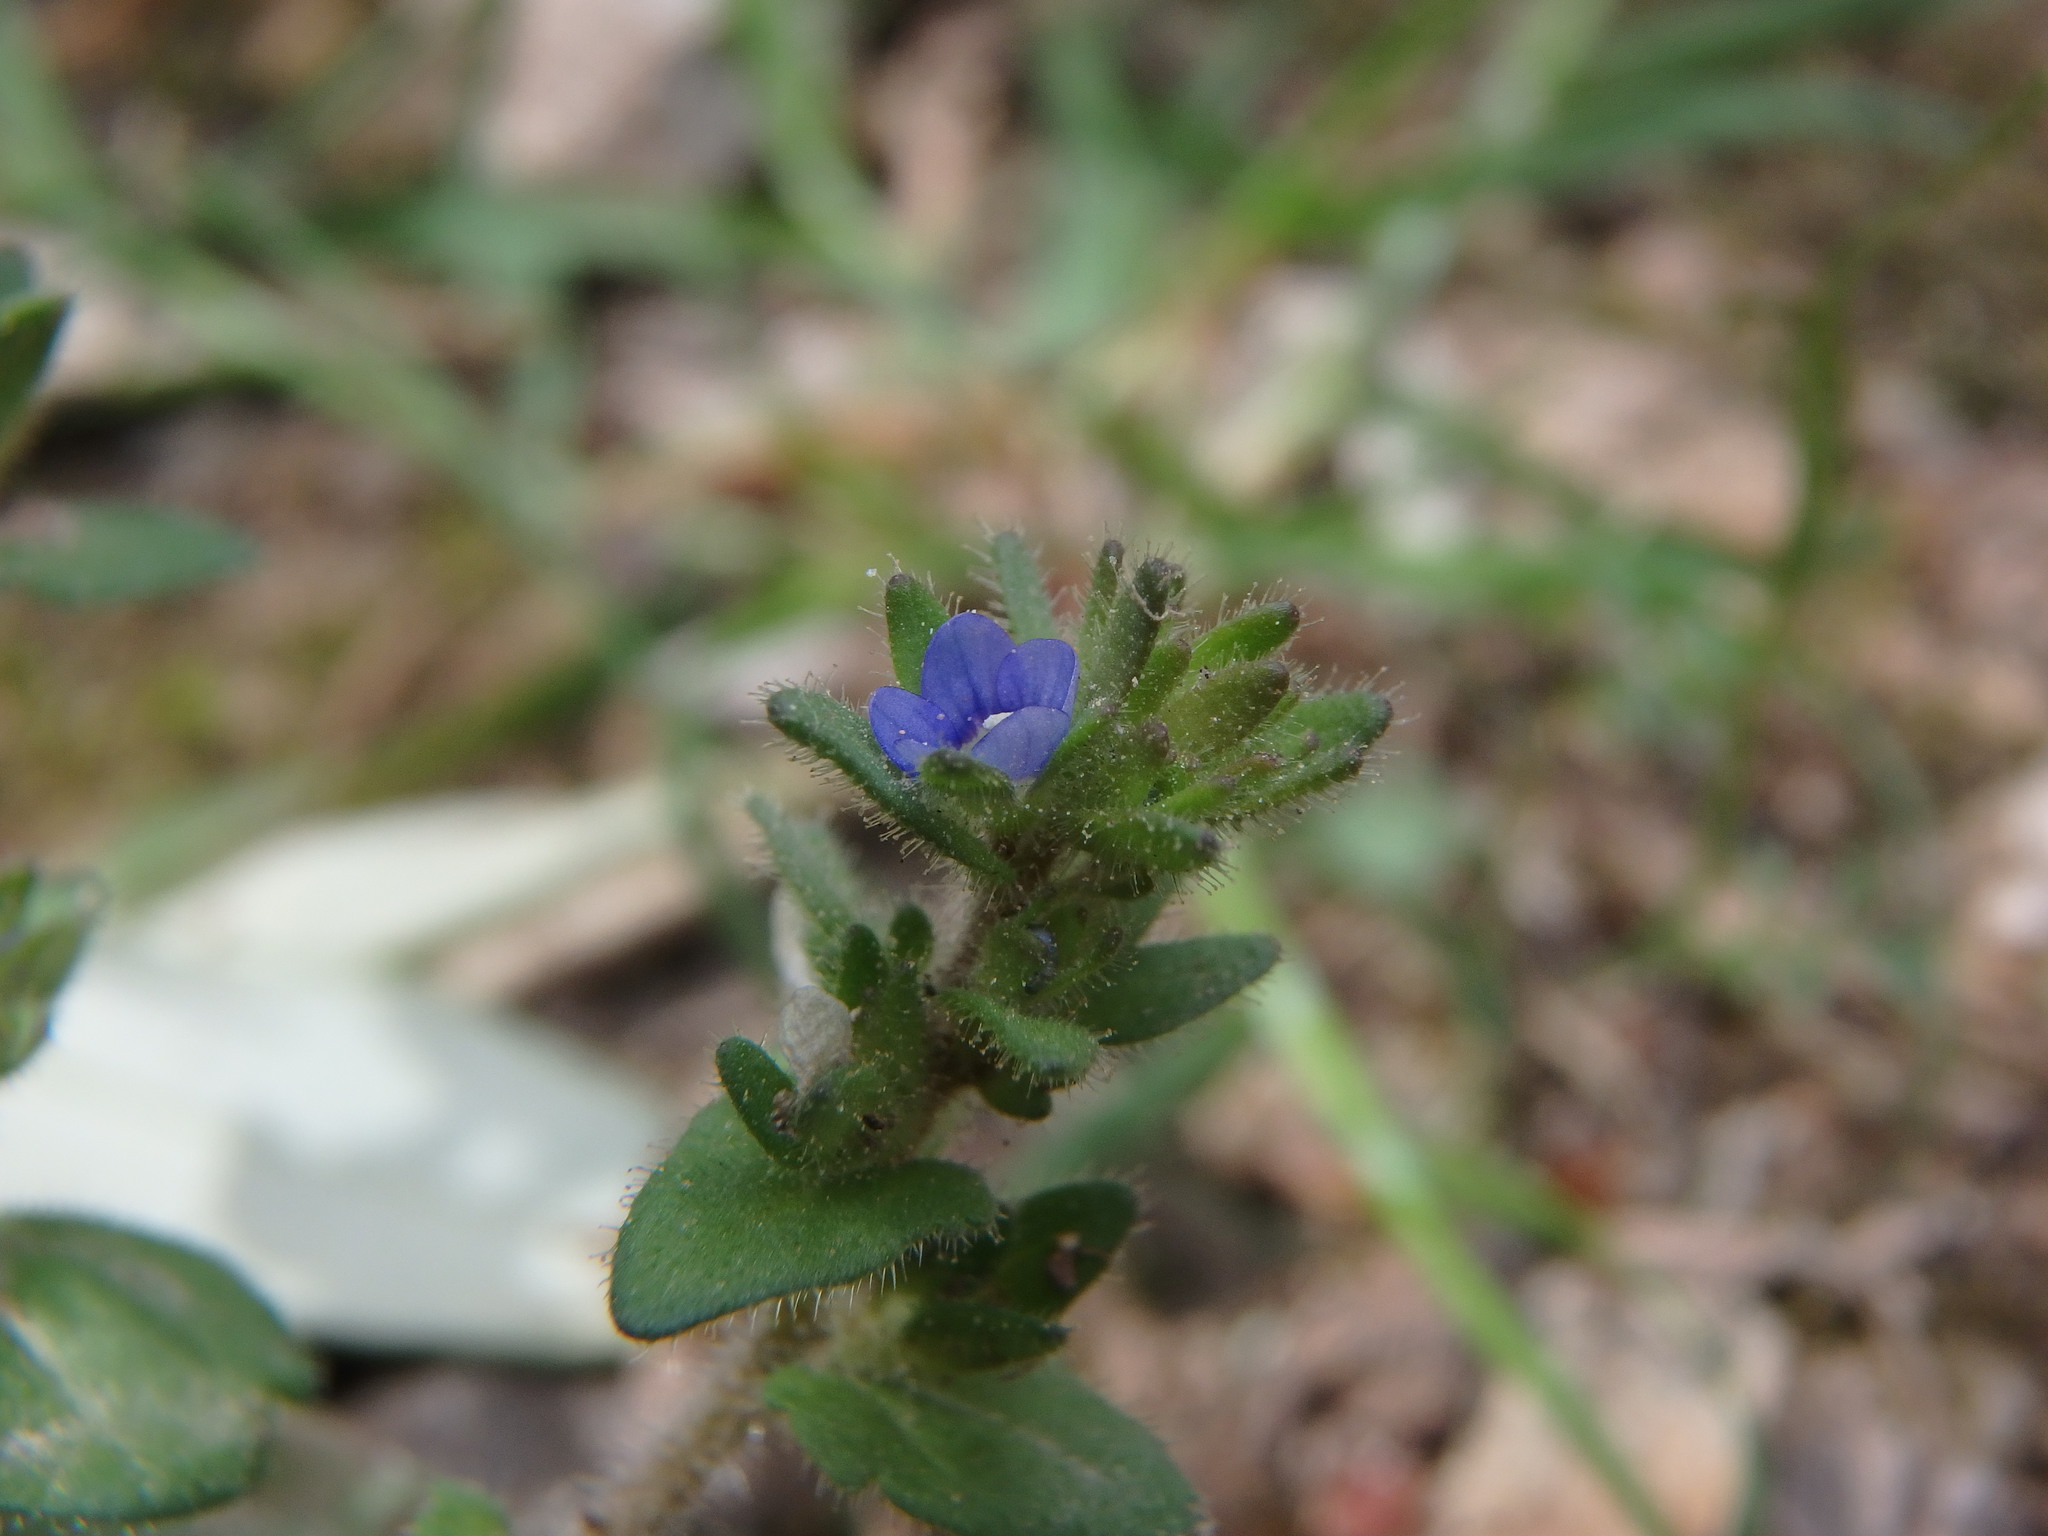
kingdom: Plantae
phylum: Tracheophyta
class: Magnoliopsida
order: Lamiales
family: Plantaginaceae
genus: Veronica
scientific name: Veronica arvensis
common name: Corn speedwell
